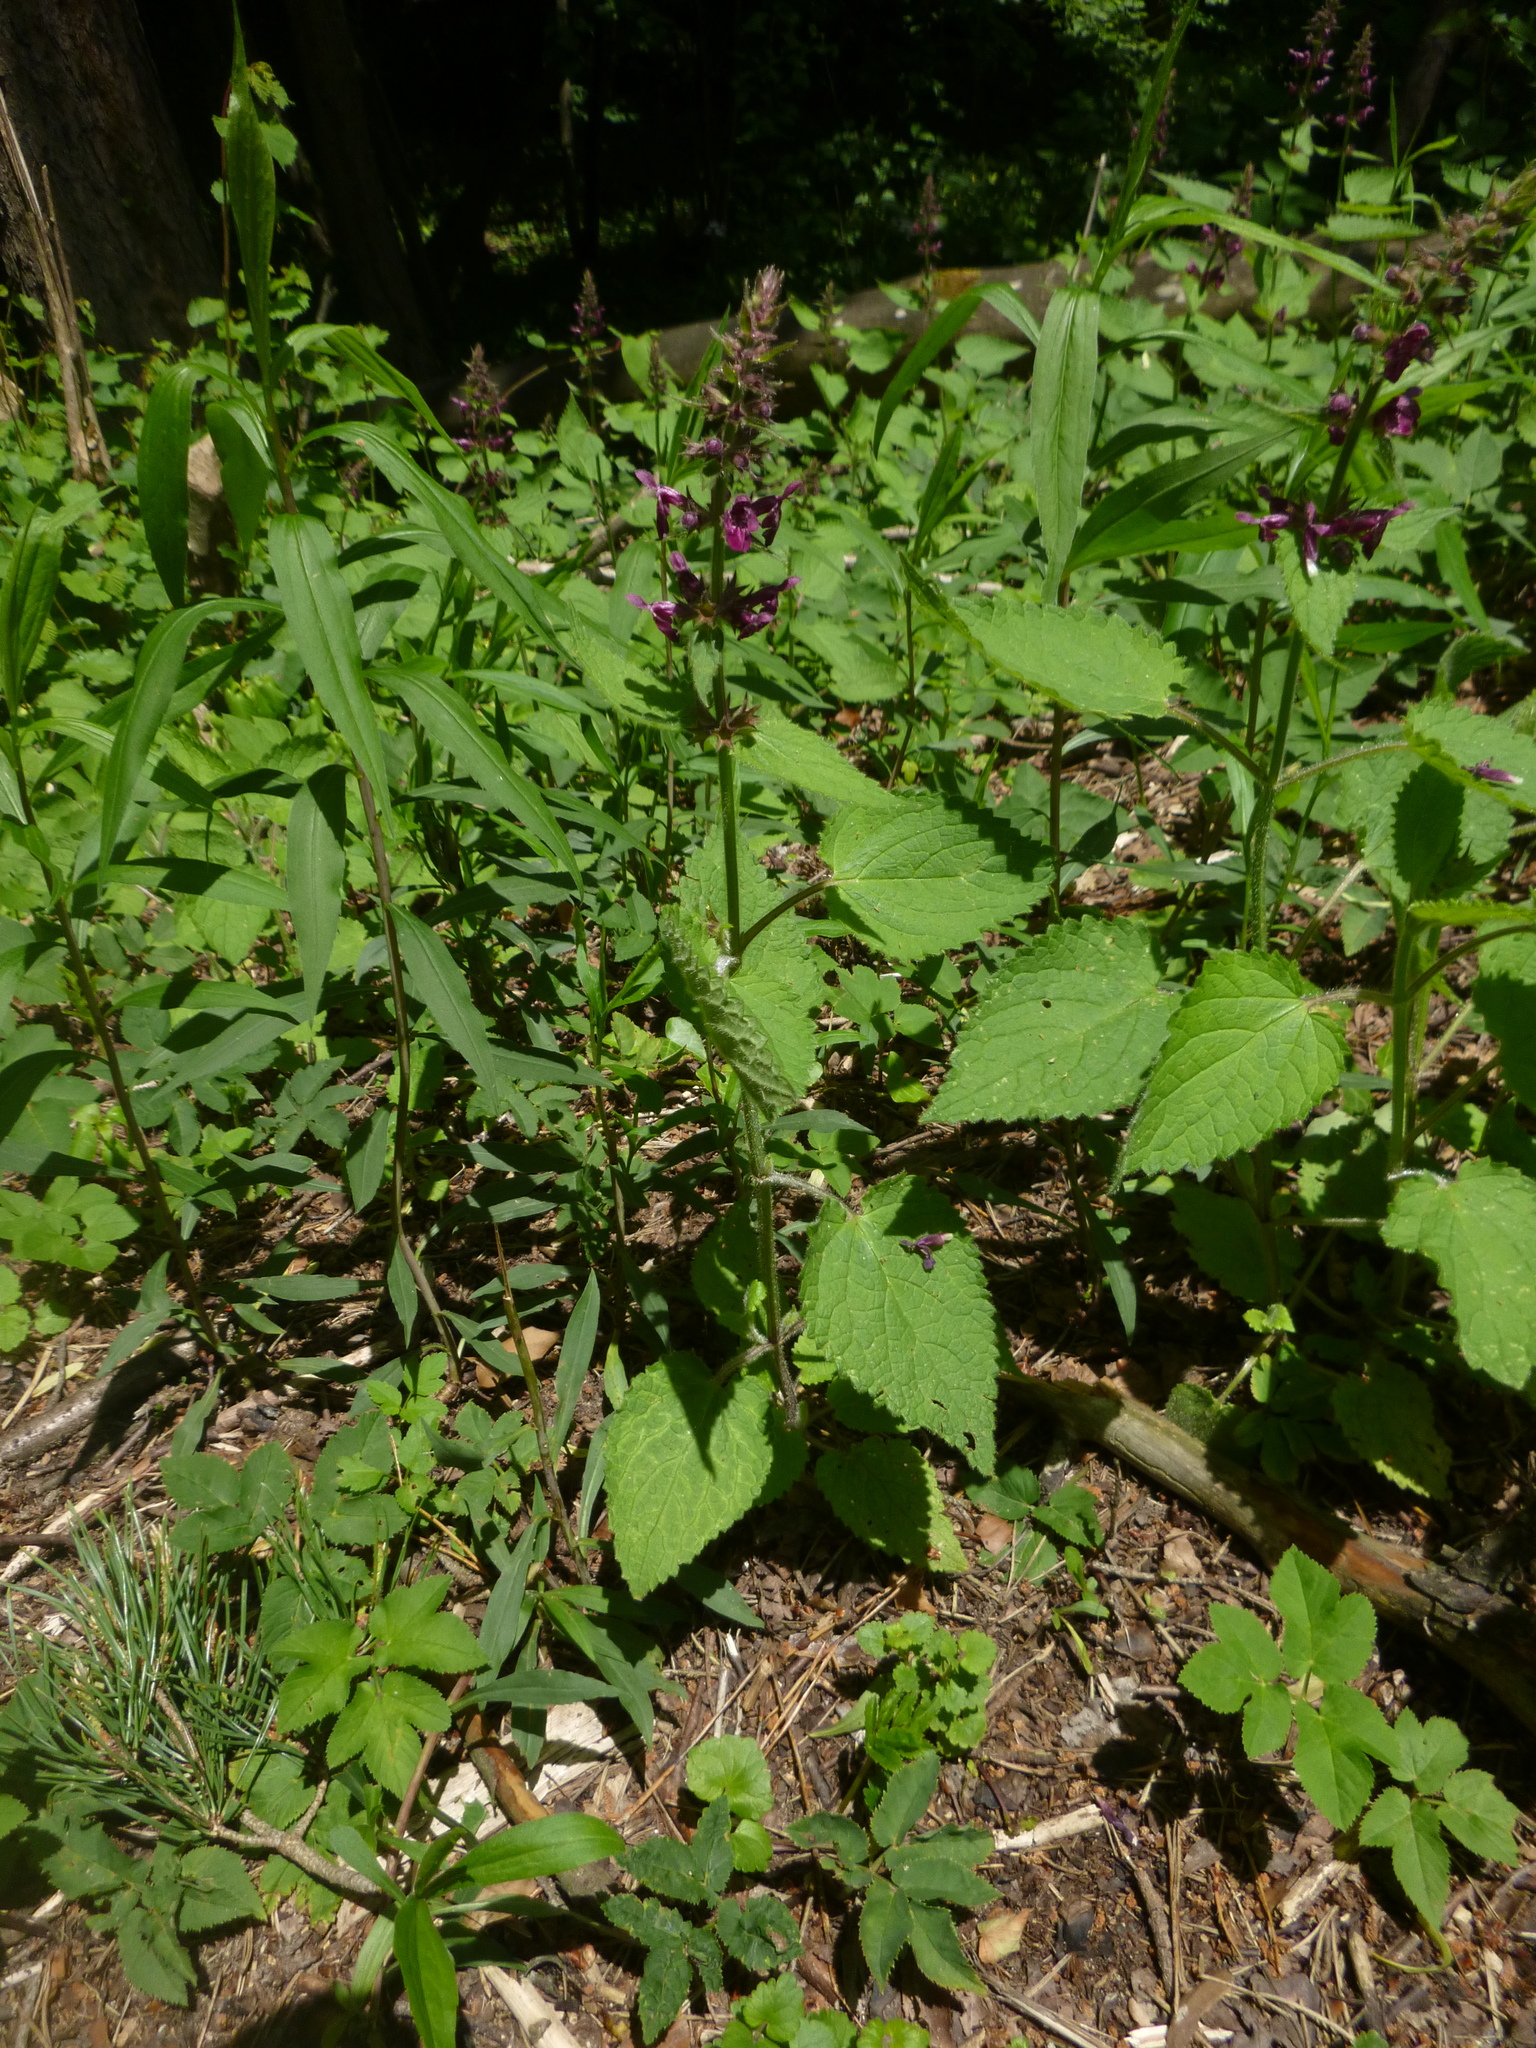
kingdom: Plantae
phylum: Tracheophyta
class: Magnoliopsida
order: Lamiales
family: Lamiaceae
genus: Stachys
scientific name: Stachys sylvatica
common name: Hedge woundwort
